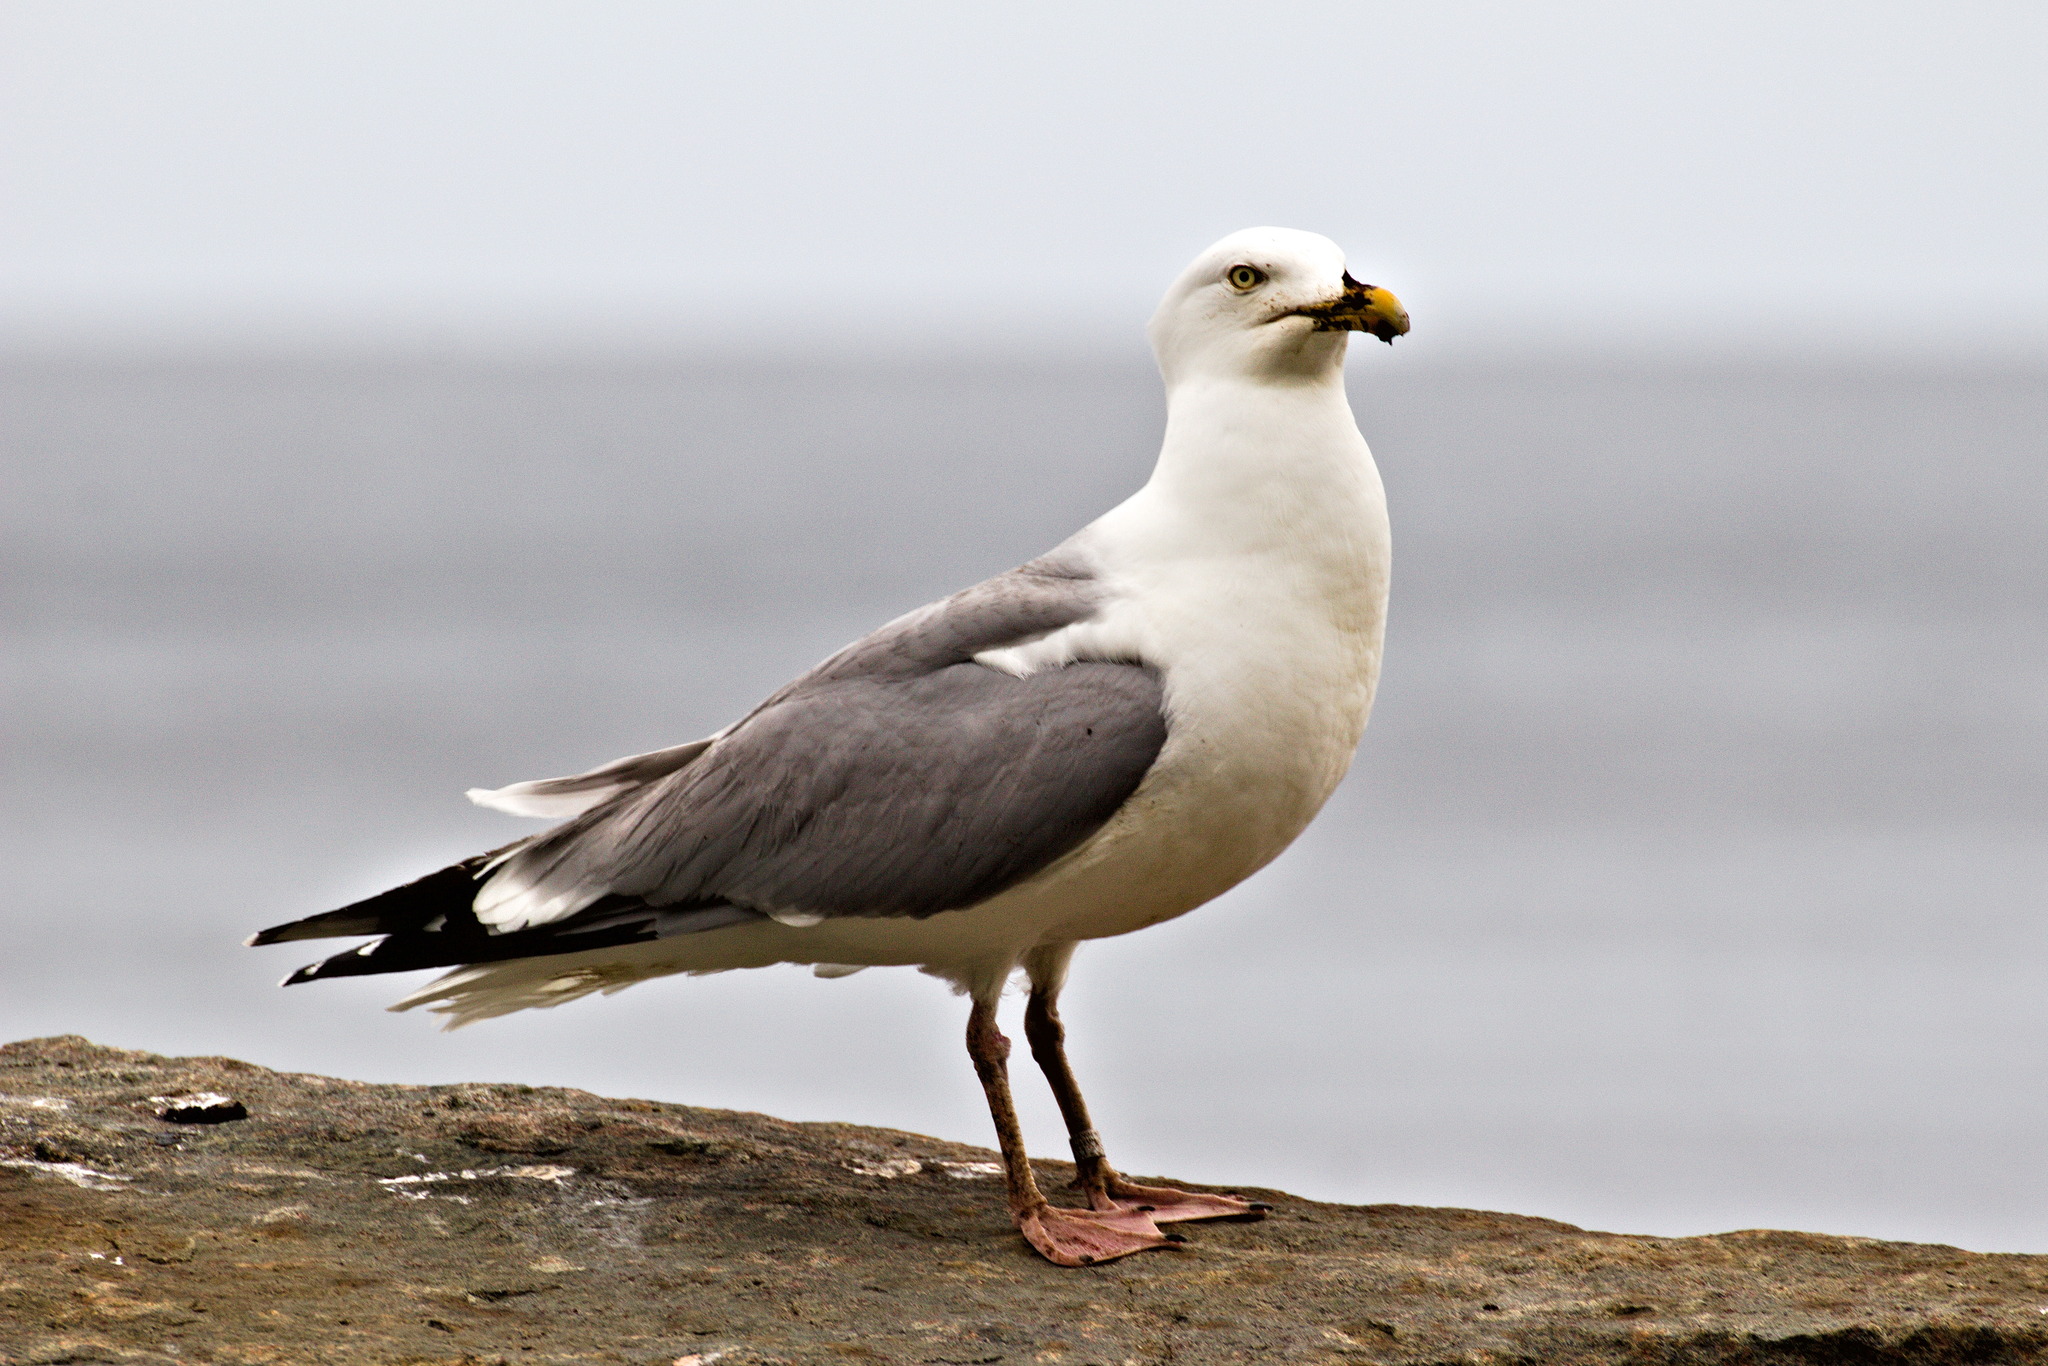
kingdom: Animalia
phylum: Chordata
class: Aves
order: Charadriiformes
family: Laridae
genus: Larus
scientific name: Larus argentatus
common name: Herring gull
